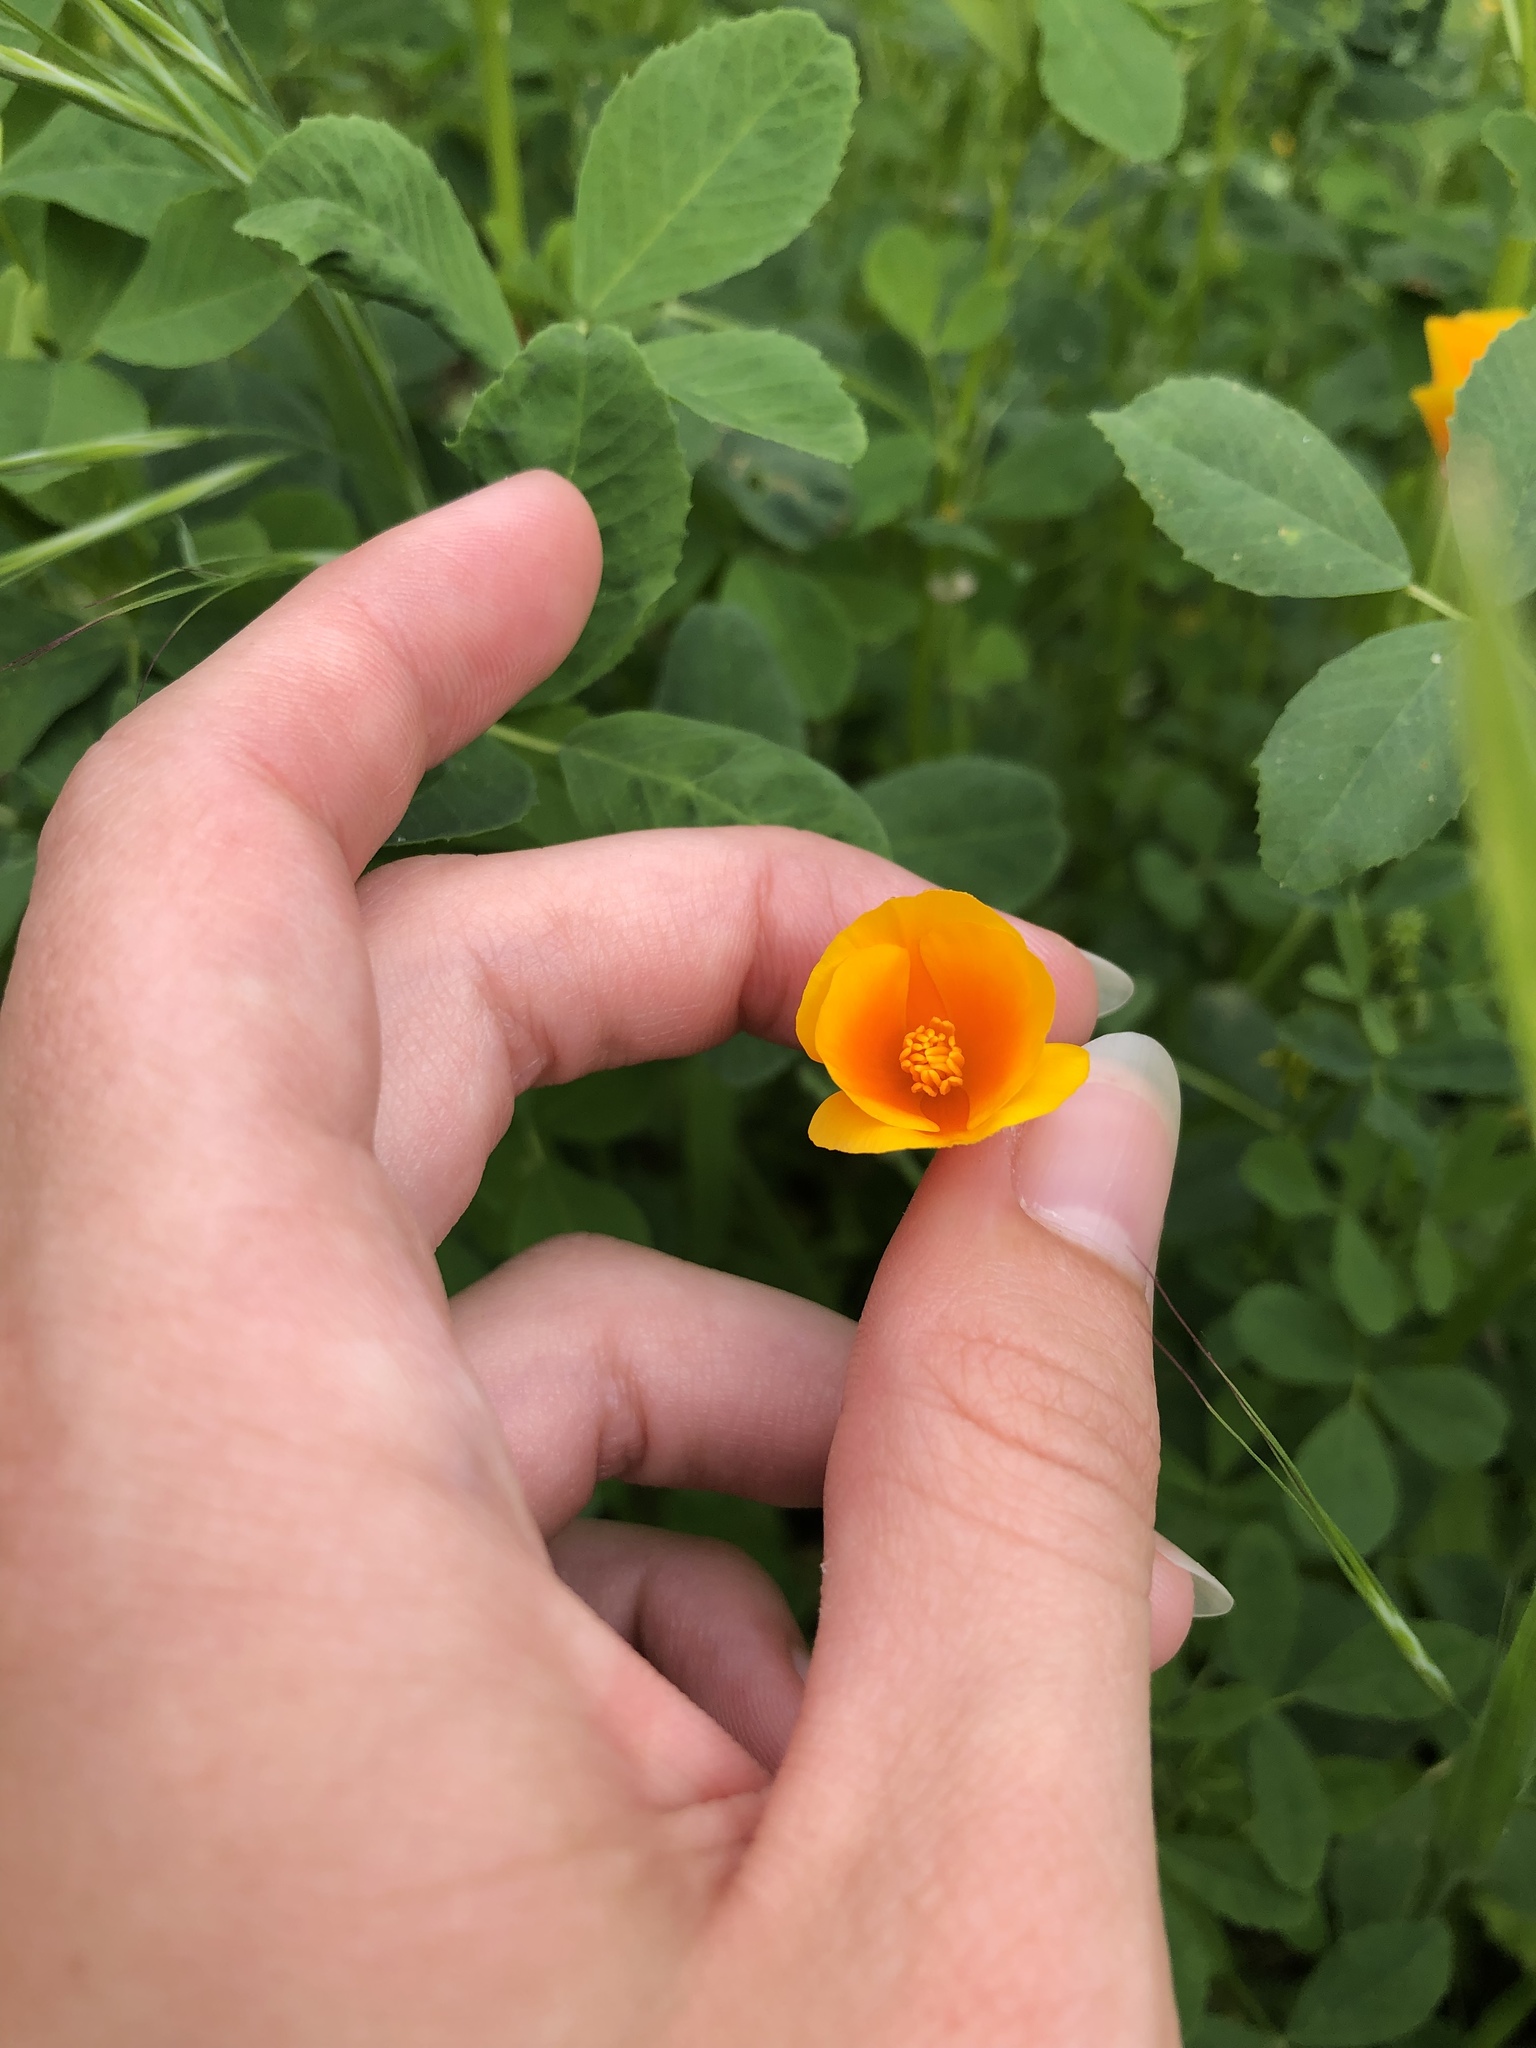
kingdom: Plantae
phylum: Tracheophyta
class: Magnoliopsida
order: Ranunculales
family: Papaveraceae
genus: Eschscholzia
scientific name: Eschscholzia californica
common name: California poppy
